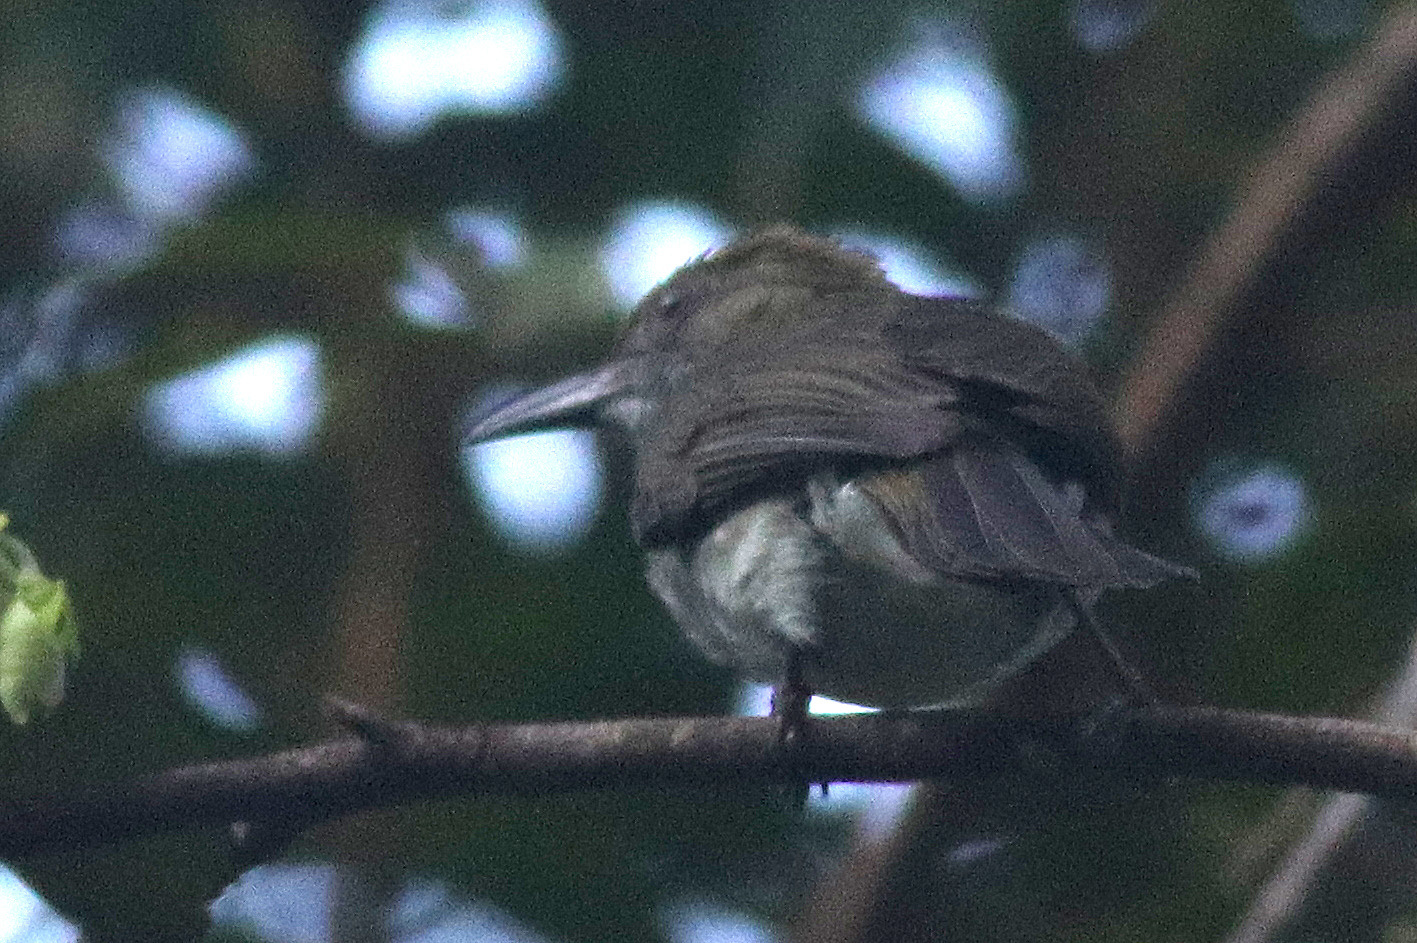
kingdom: Animalia
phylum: Chordata
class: Aves
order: Passeriformes
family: Pycnonotidae
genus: Ixos
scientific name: Ixos malaccensis
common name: Streaked bulbul
